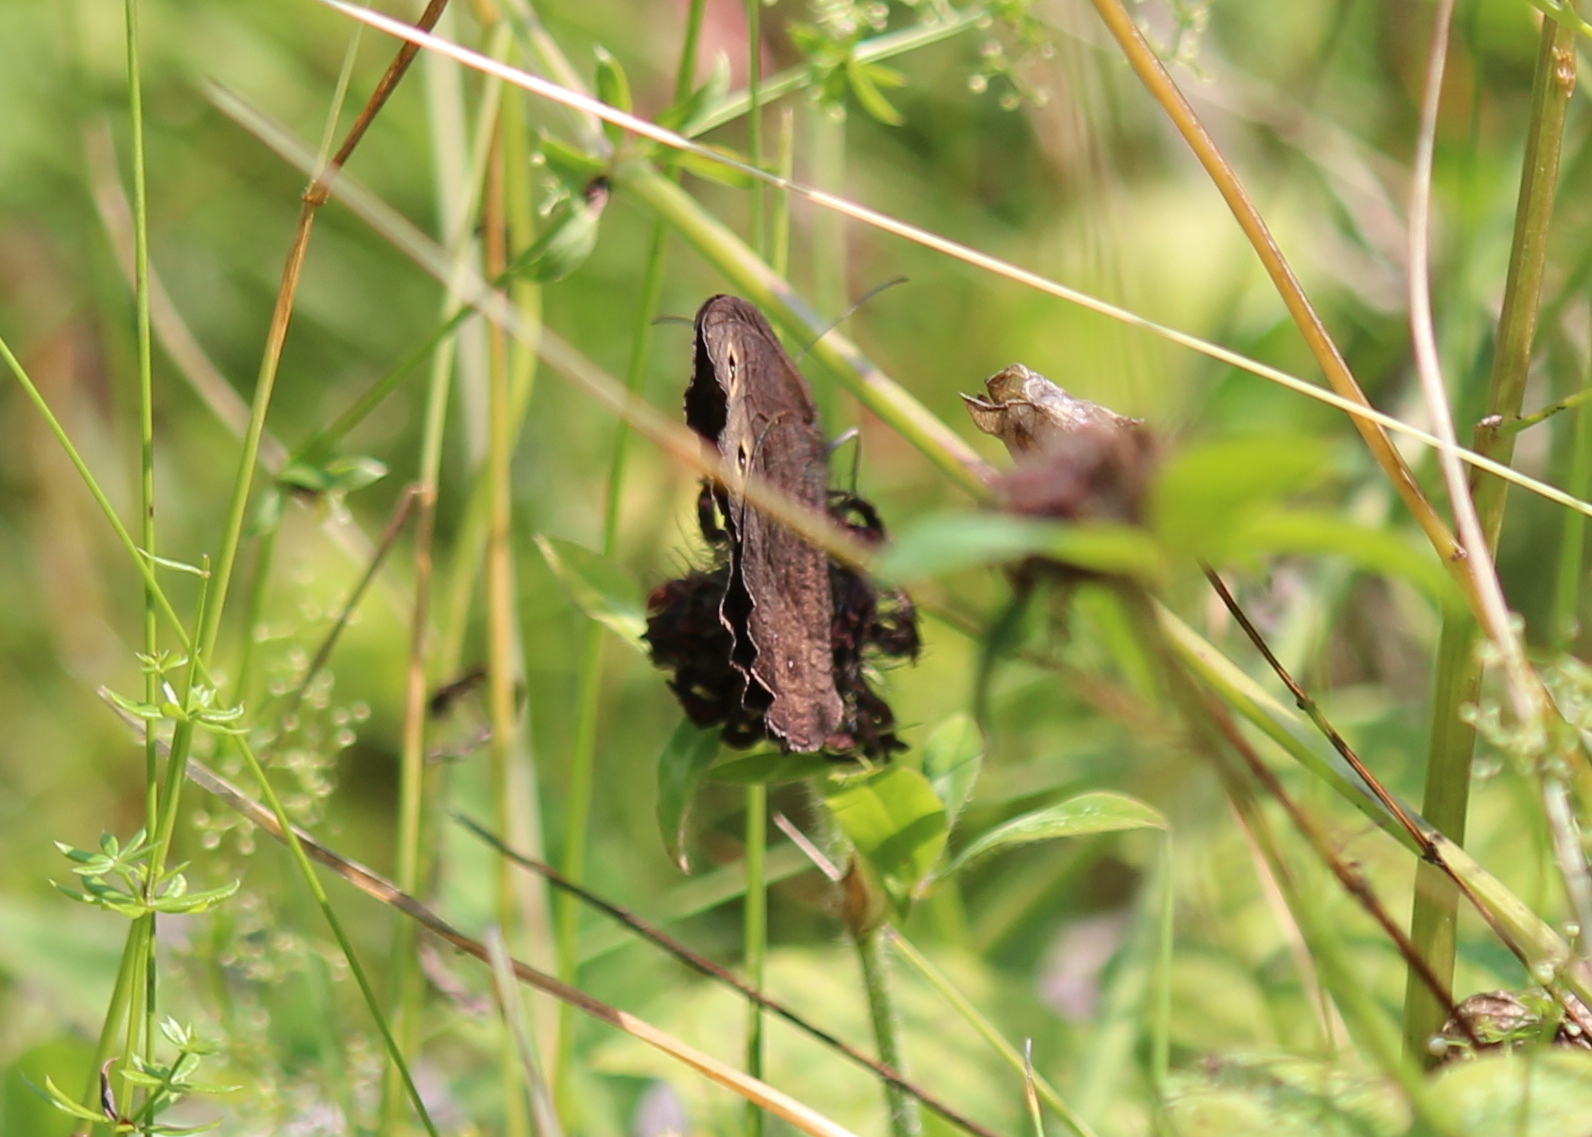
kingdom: Animalia
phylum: Arthropoda
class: Insecta
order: Lepidoptera
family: Nymphalidae
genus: Cercyonis
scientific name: Cercyonis pegala
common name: Common wood-nymph
